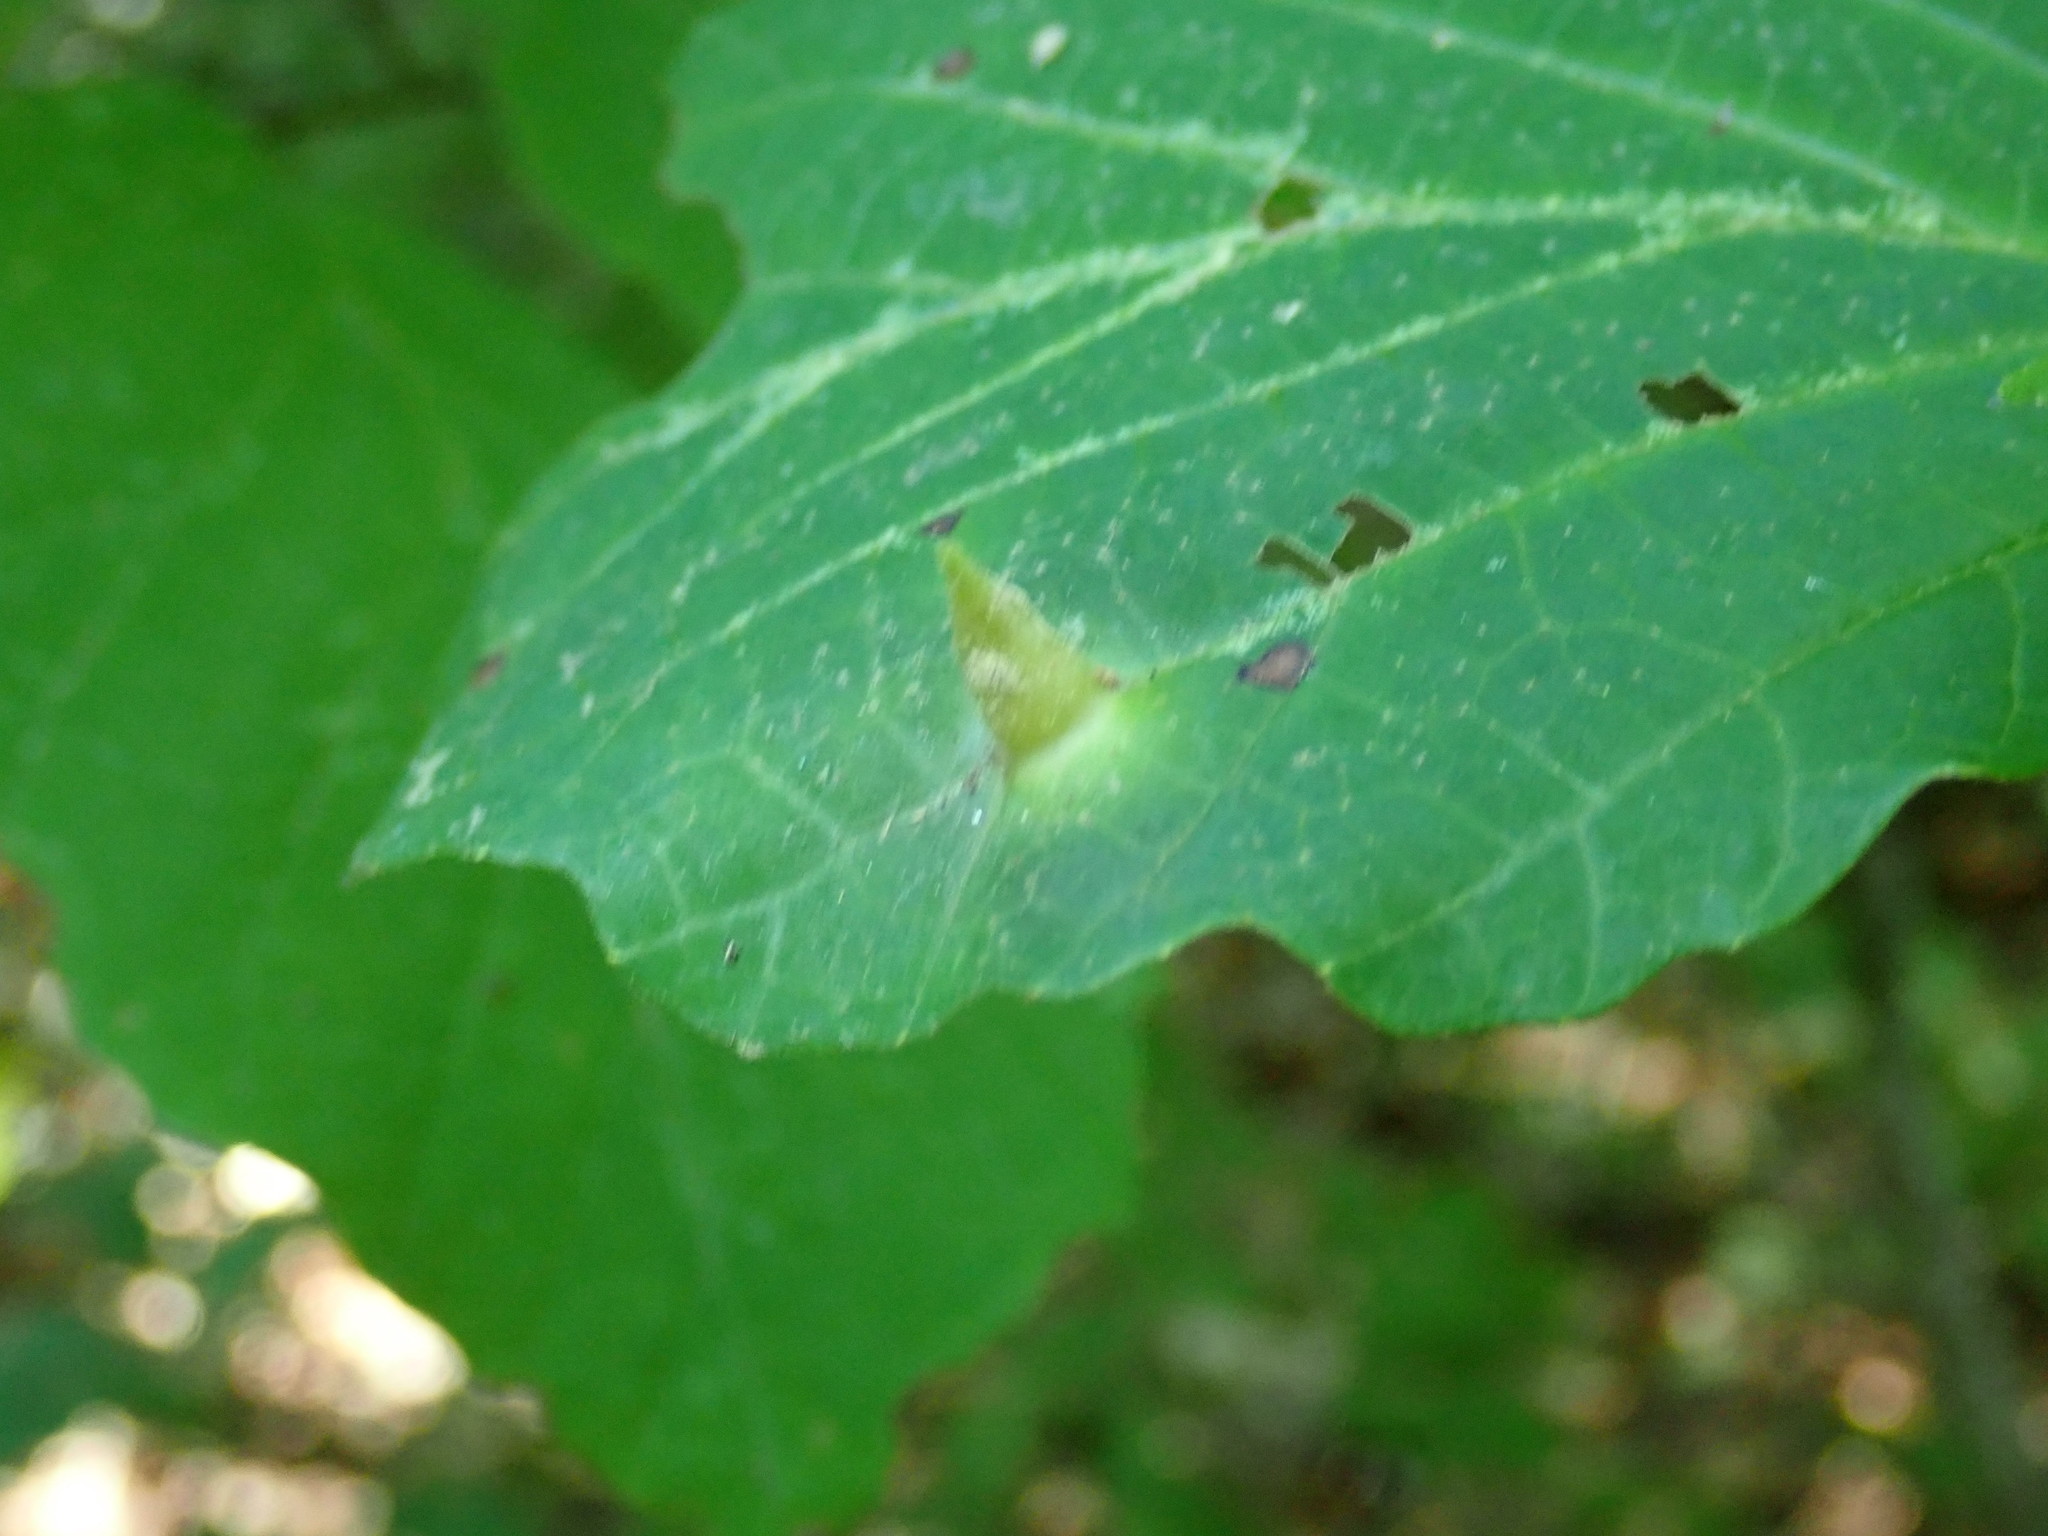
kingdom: Animalia
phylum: Arthropoda
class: Insecta
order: Hemiptera
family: Aphididae
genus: Hormaphis
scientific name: Hormaphis hamamelidis
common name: Witch-hazel cone gall aphid
